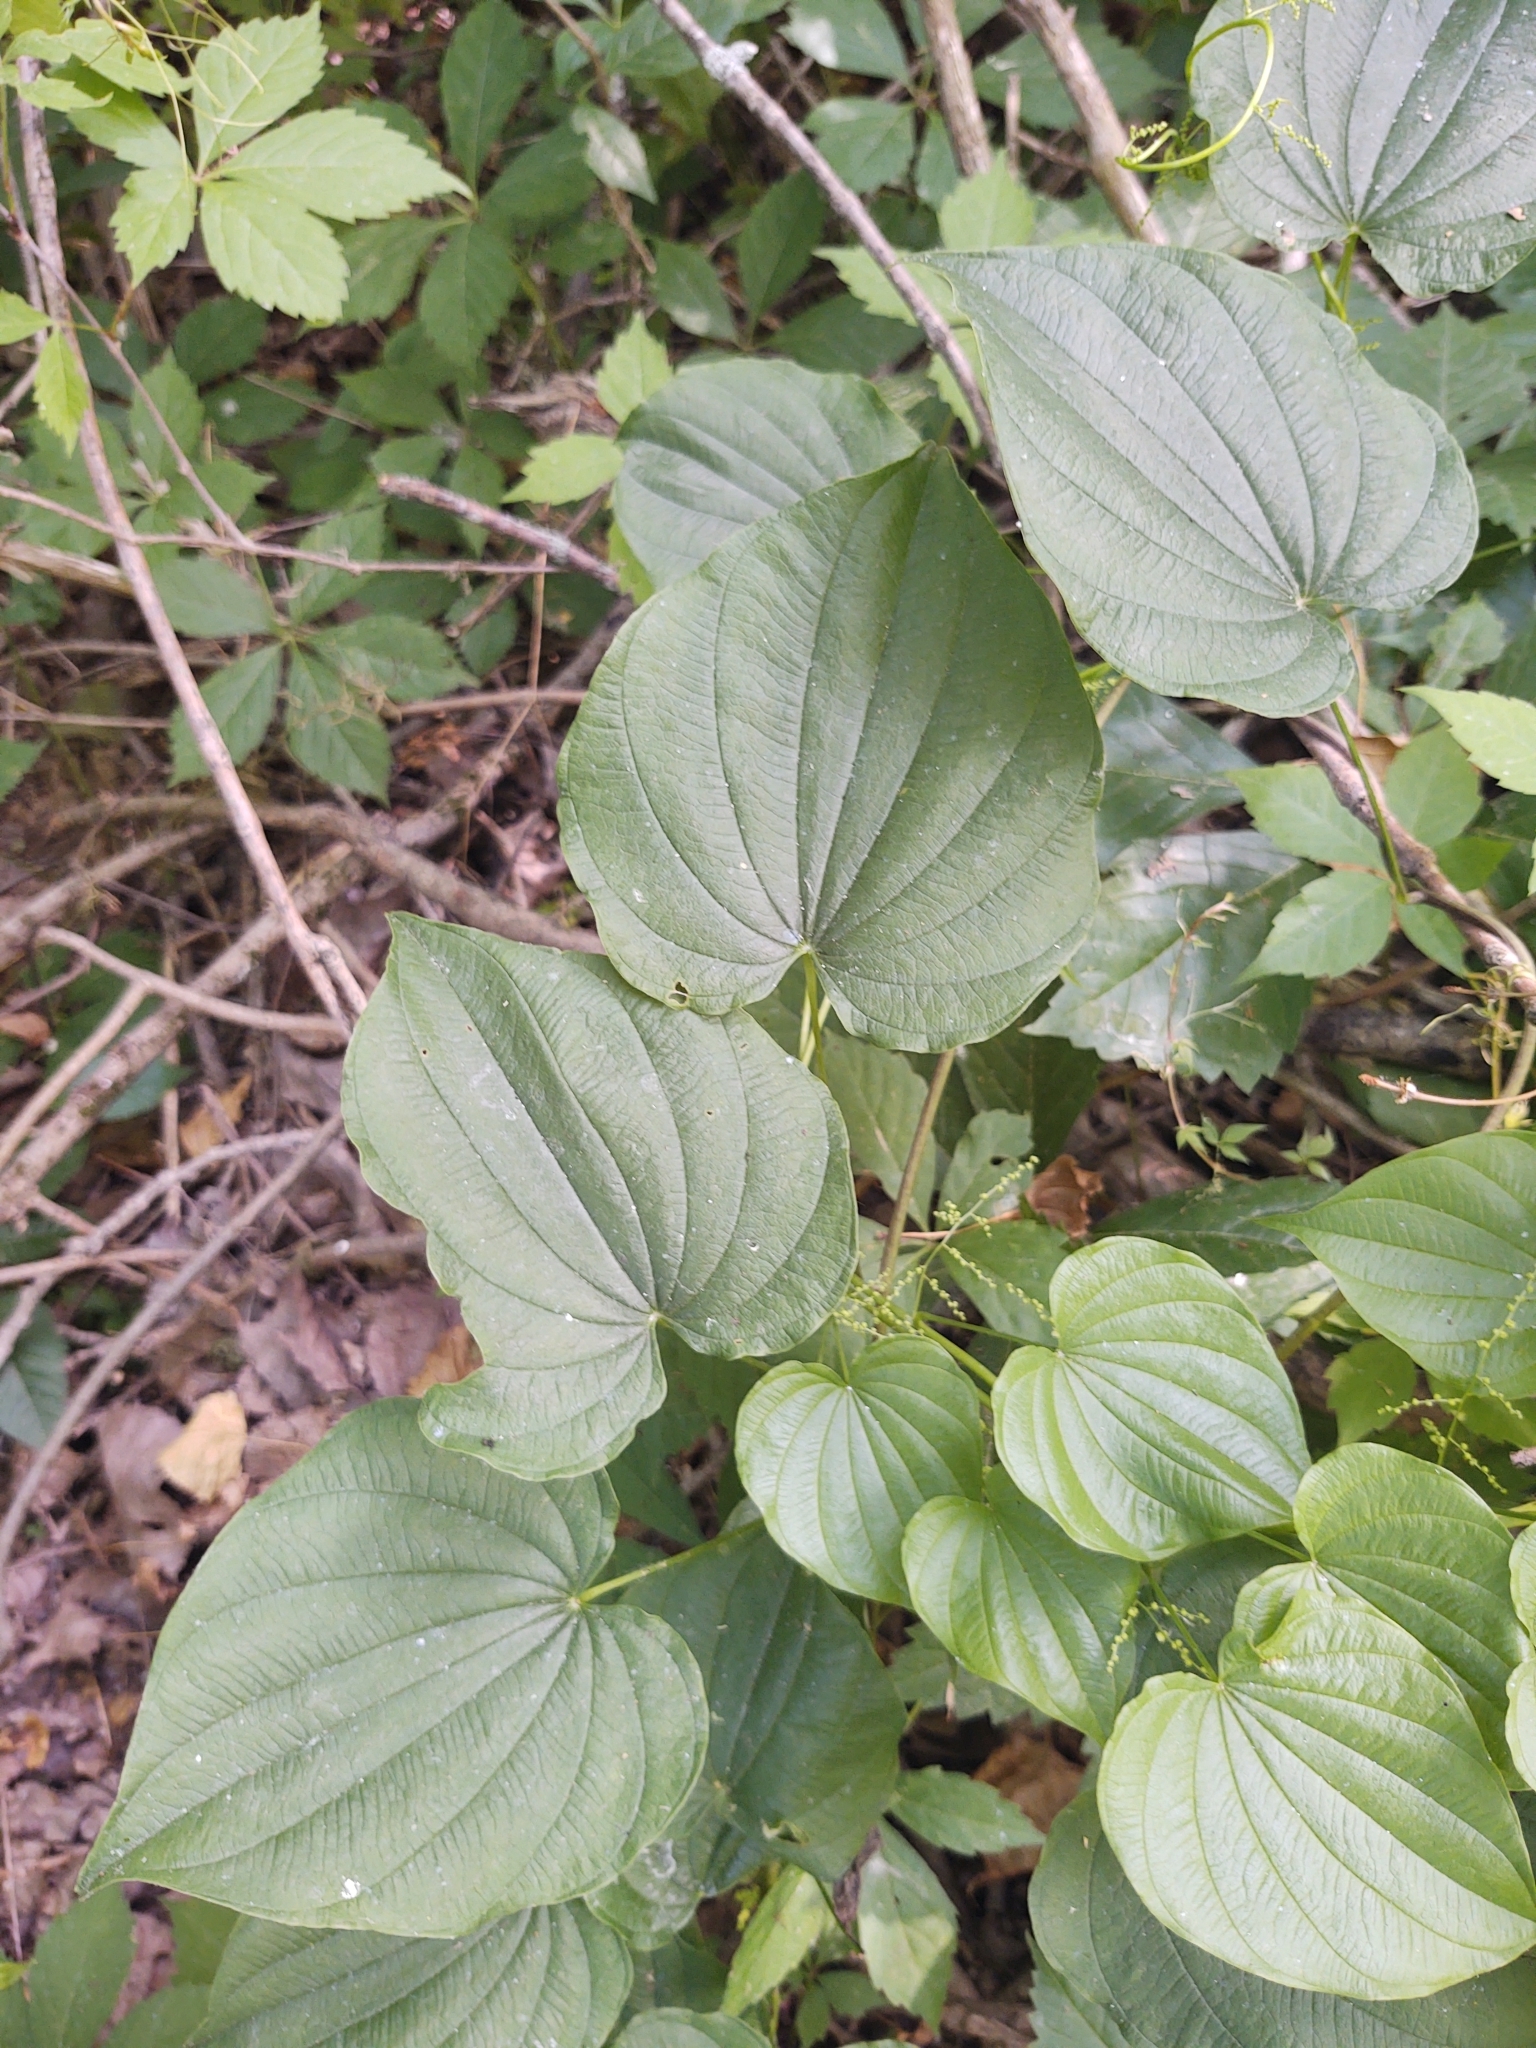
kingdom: Plantae
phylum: Tracheophyta
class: Liliopsida
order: Dioscoreales
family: Dioscoreaceae
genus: Dioscorea
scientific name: Dioscorea villosa
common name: Wild yam
